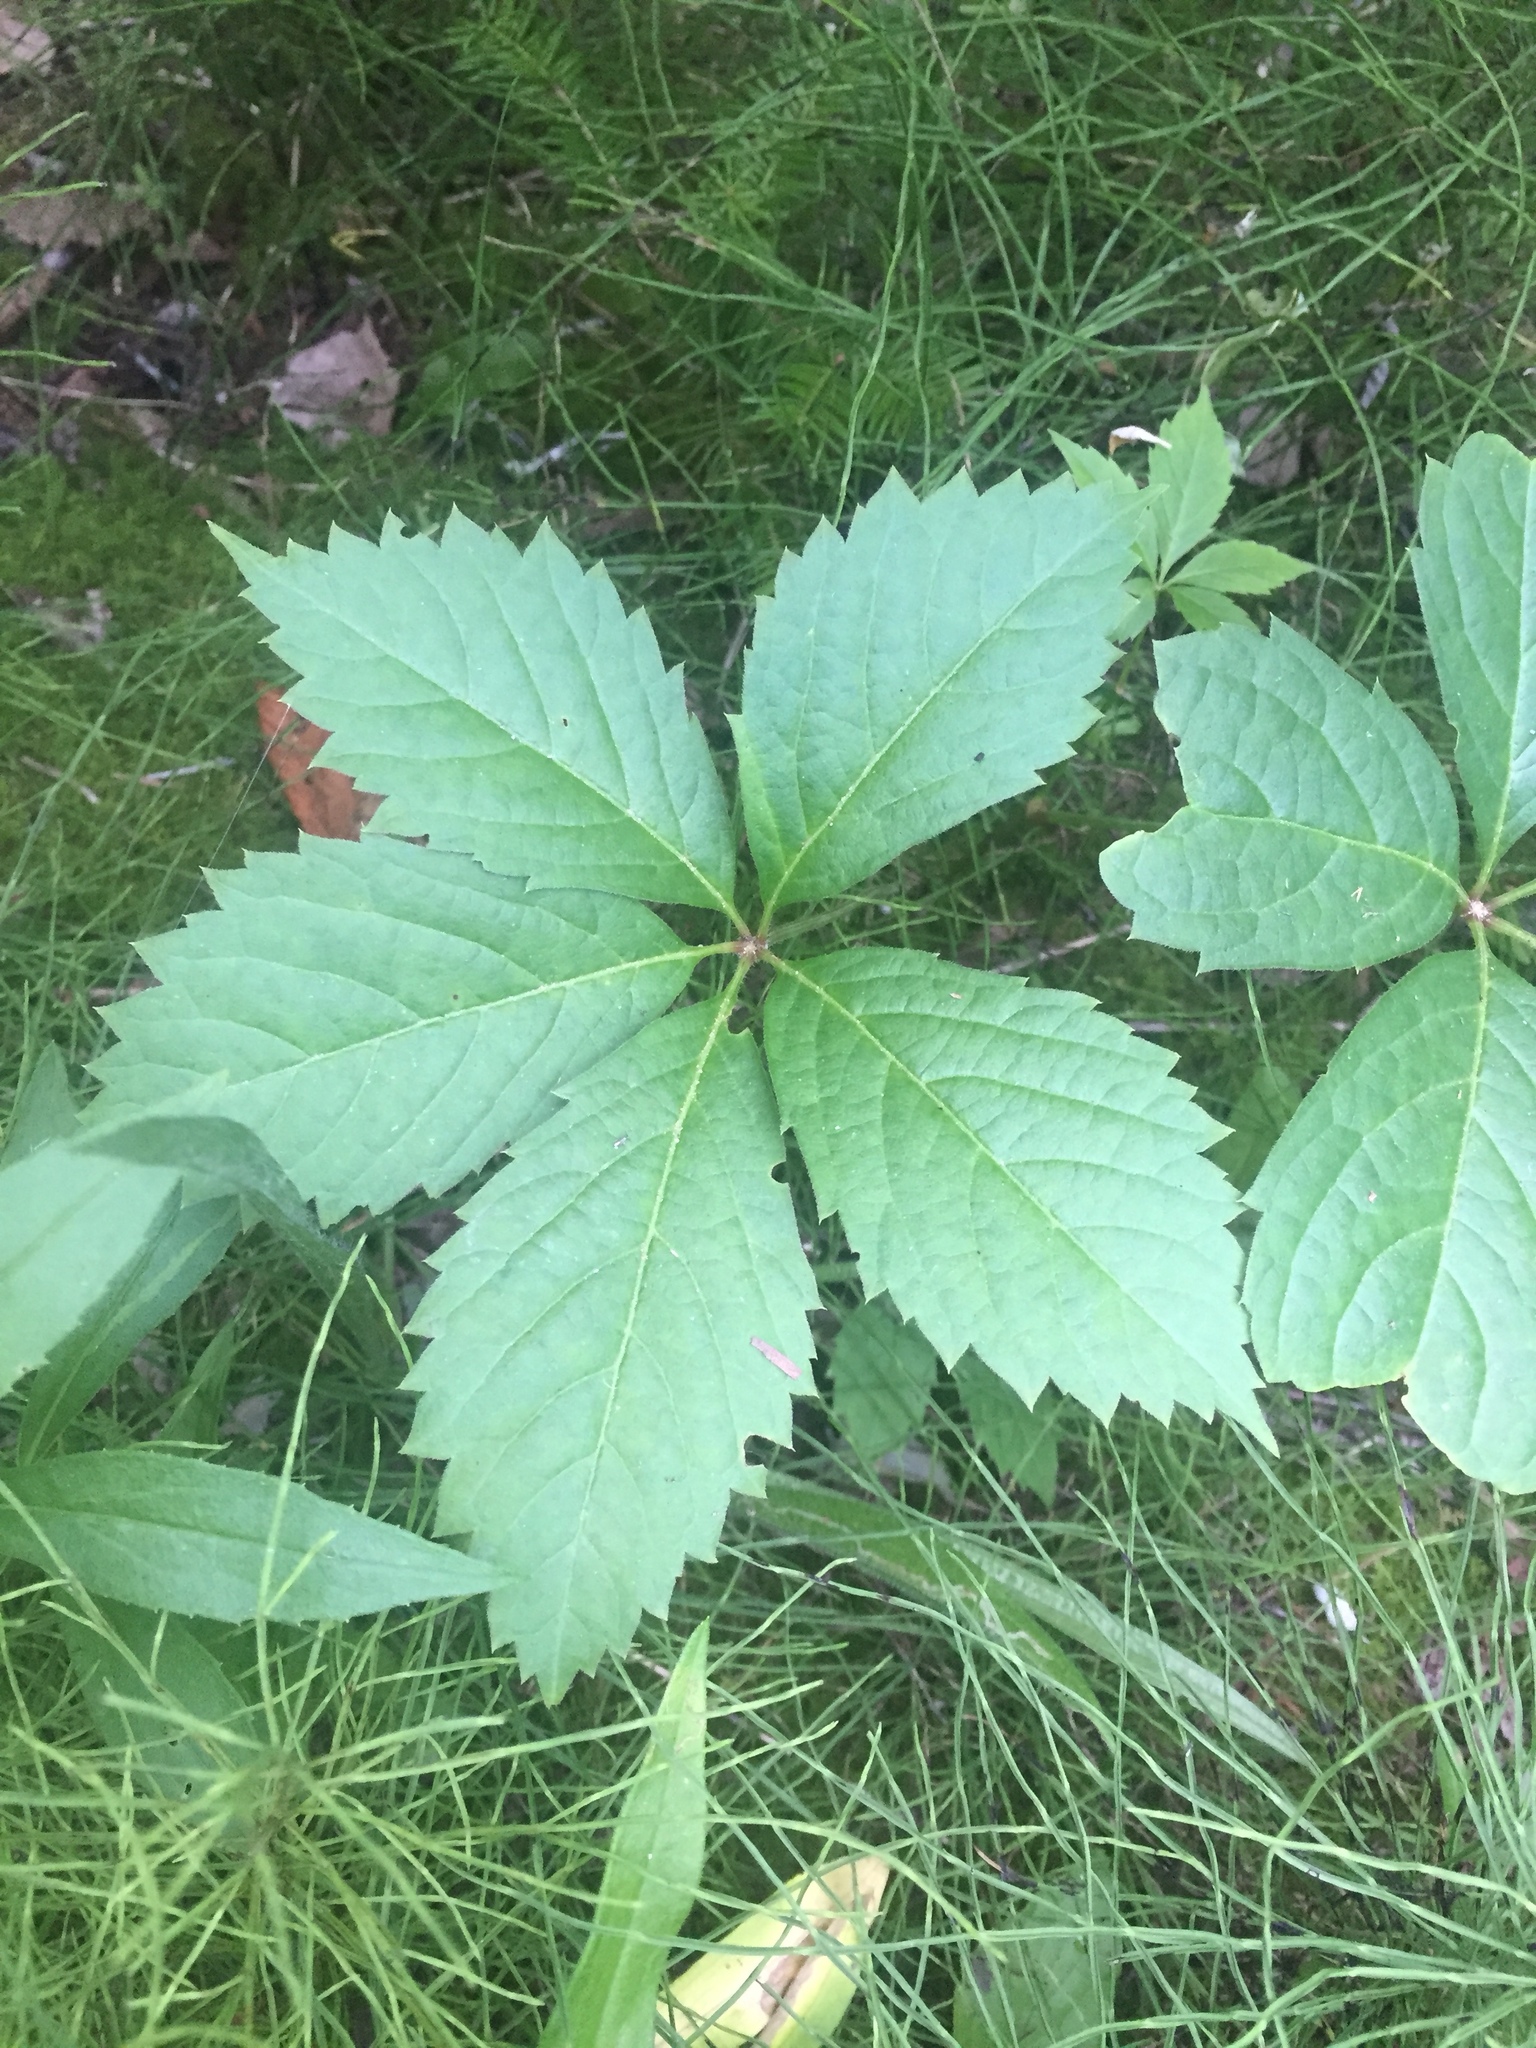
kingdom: Plantae
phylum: Tracheophyta
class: Magnoliopsida
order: Vitales
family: Vitaceae
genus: Parthenocissus
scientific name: Parthenocissus inserta
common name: False virginia-creeper
